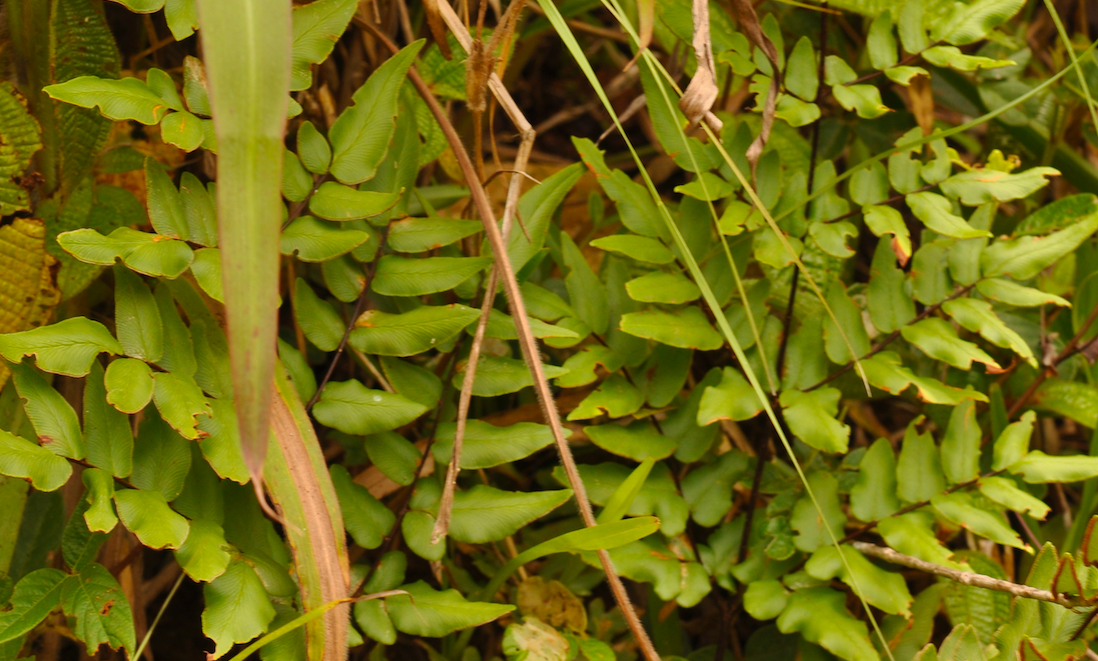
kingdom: Plantae
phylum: Tracheophyta
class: Polypodiopsida
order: Polypodiales
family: Pteridaceae
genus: Cheilanthes
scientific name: Cheilanthes viridis
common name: Green cliffbrake
